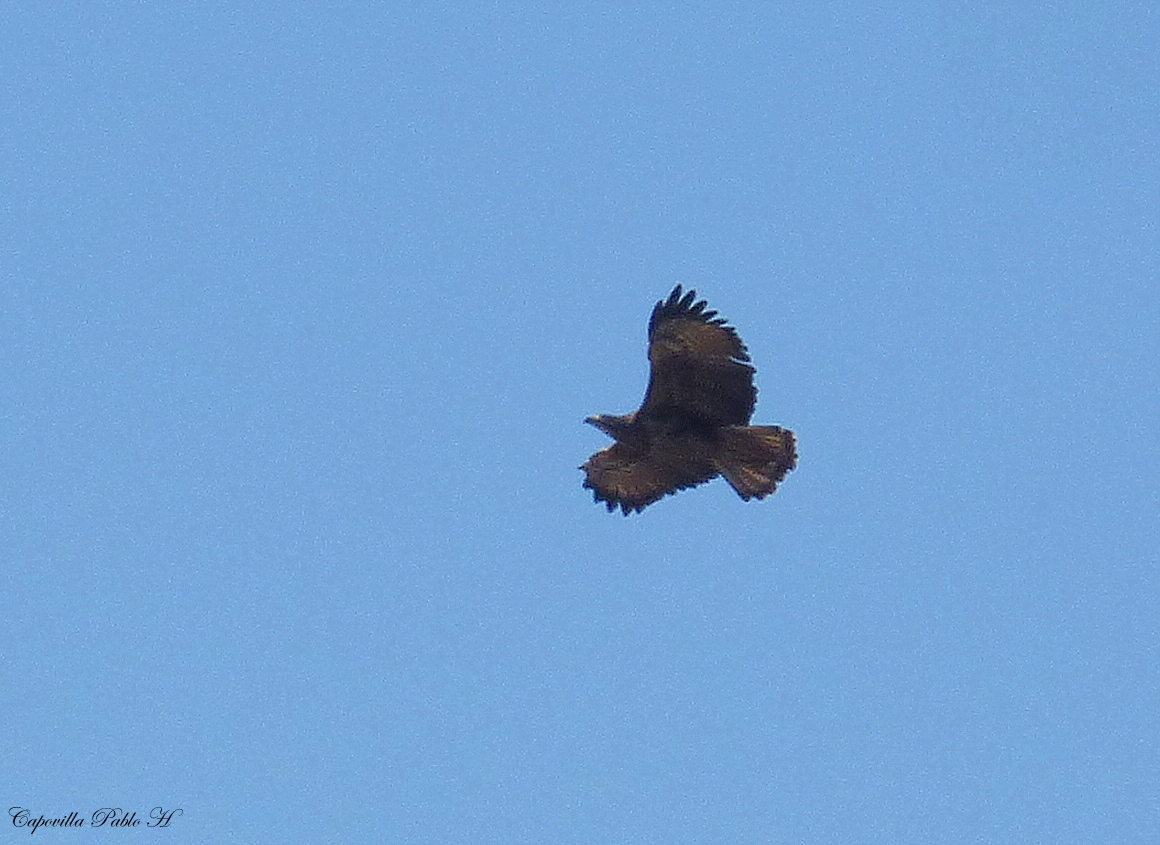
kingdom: Animalia
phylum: Chordata
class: Aves
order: Accipitriformes
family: Accipitridae
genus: Buteogallus
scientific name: Buteogallus urubitinga
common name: Great black hawk
